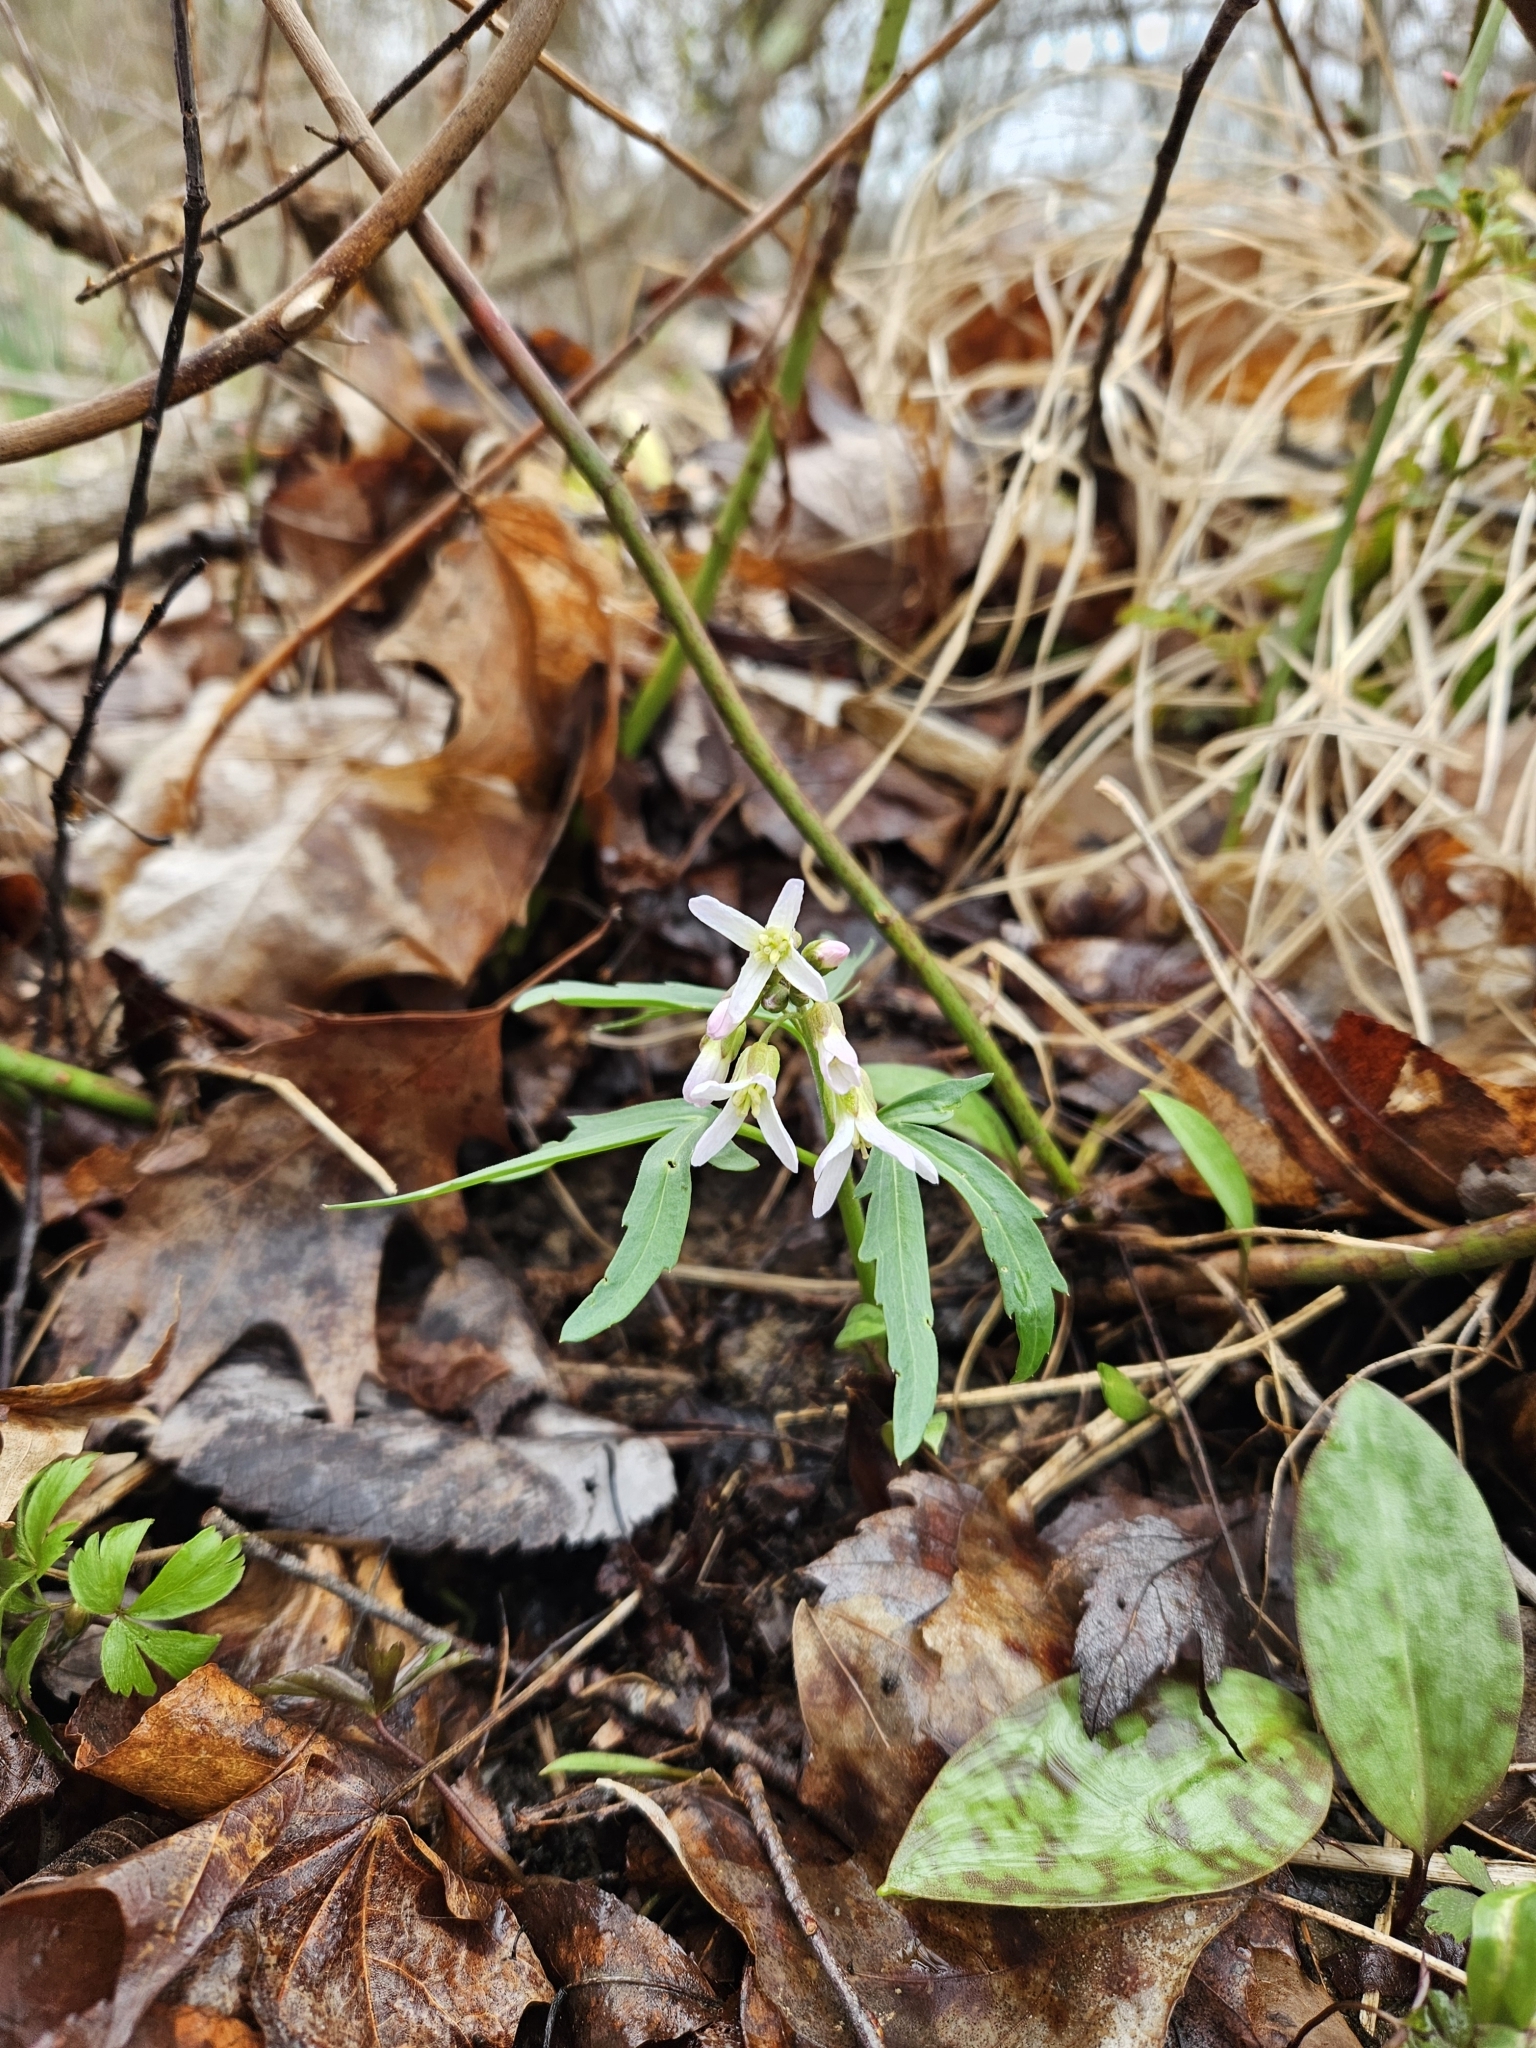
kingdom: Plantae
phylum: Tracheophyta
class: Magnoliopsida
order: Brassicales
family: Brassicaceae
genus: Cardamine
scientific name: Cardamine concatenata
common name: Cut-leaf toothcup
